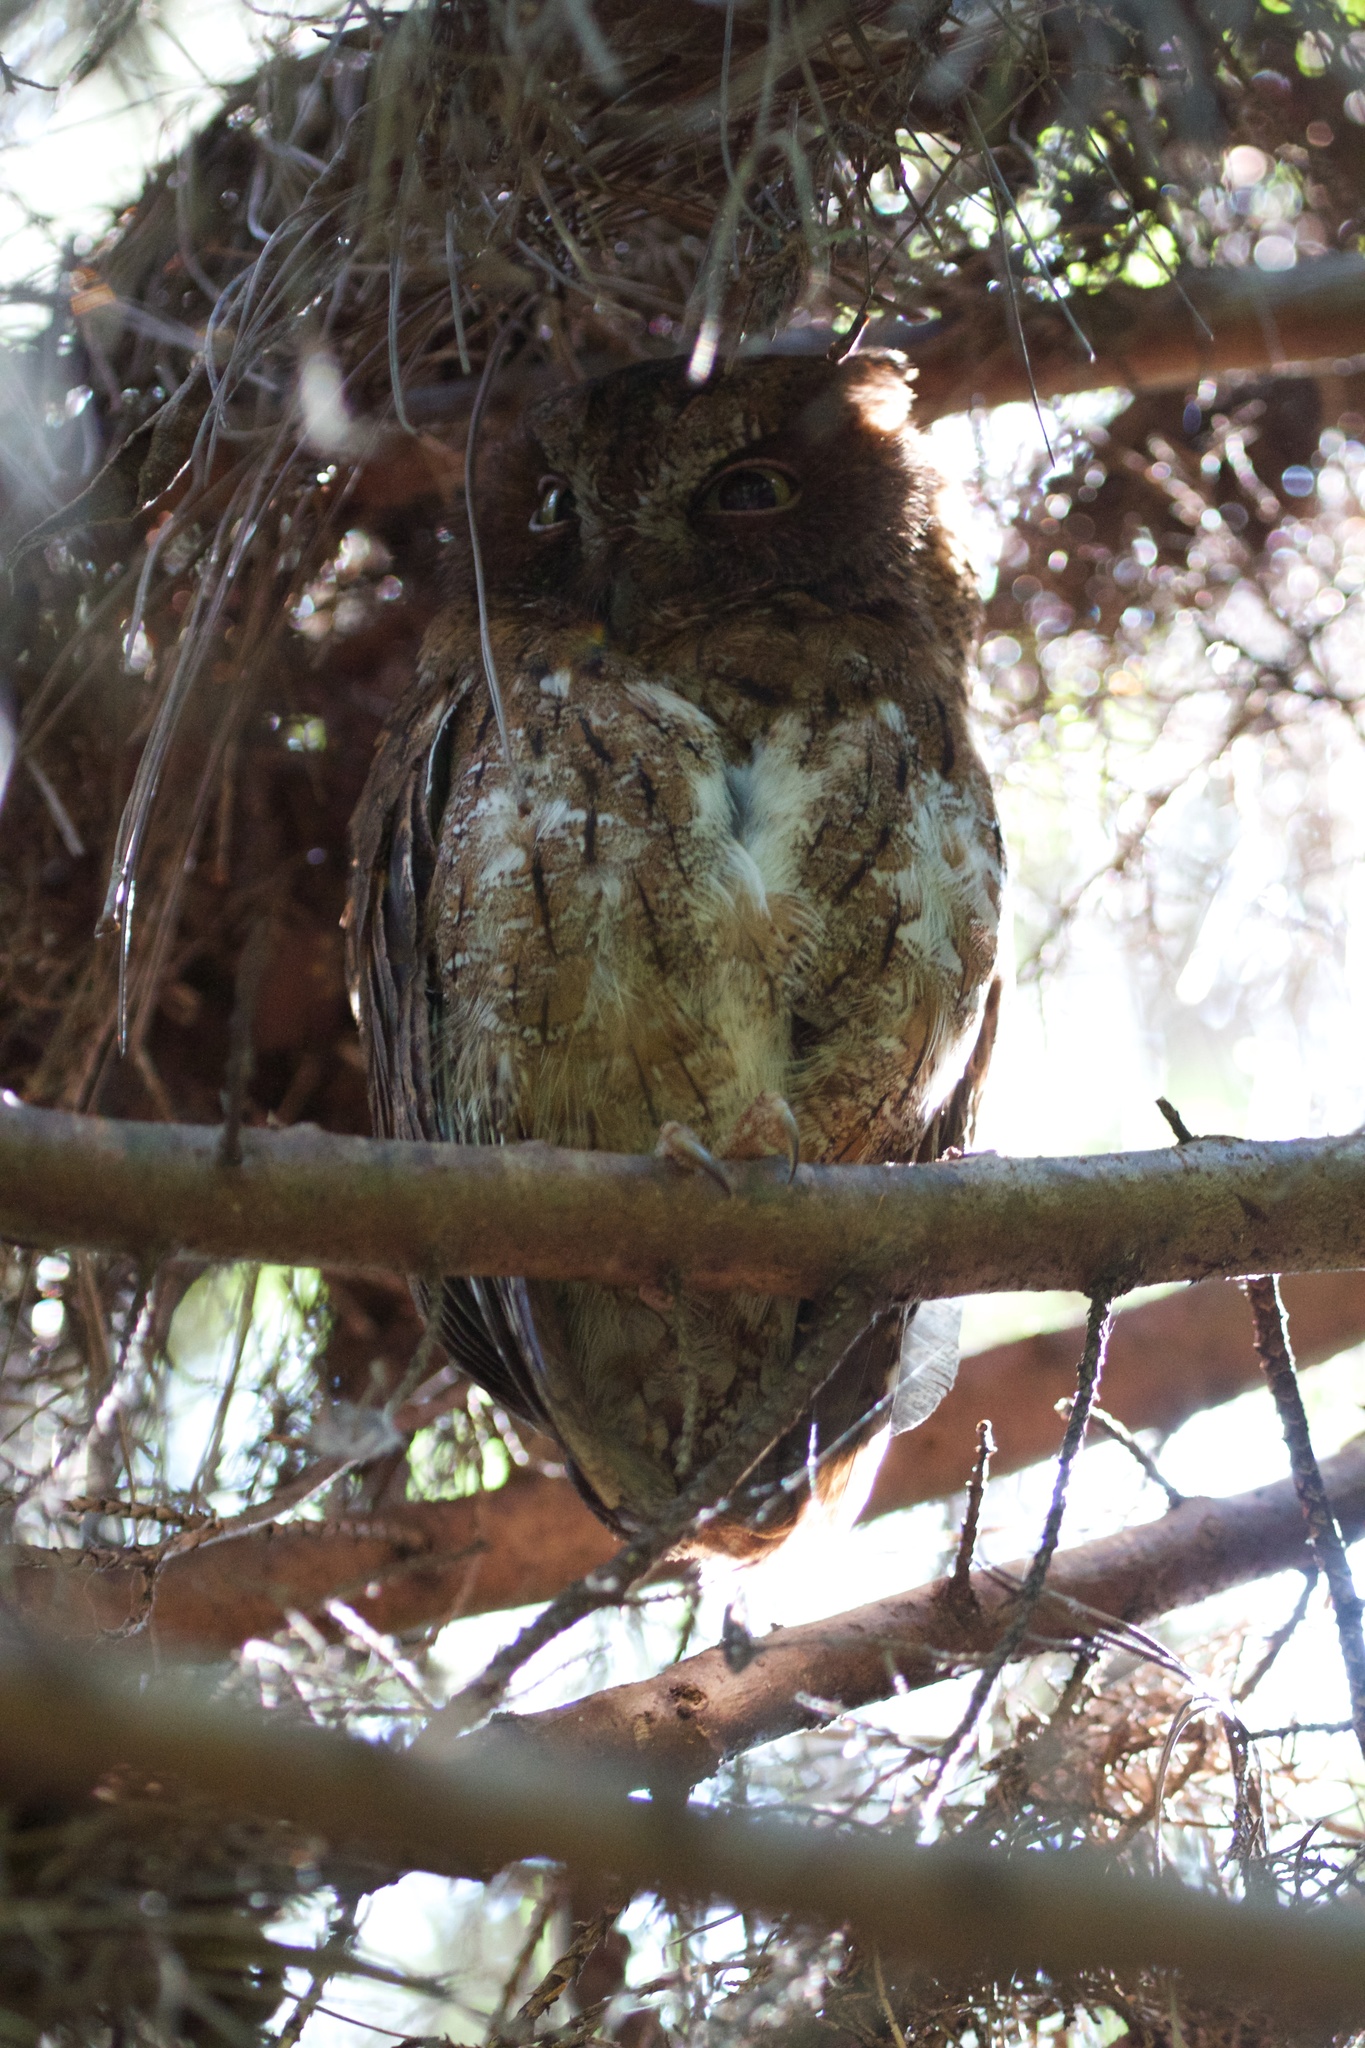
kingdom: Animalia
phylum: Chordata
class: Aves
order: Strigiformes
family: Strigidae
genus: Otus
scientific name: Otus rutilus
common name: Rainforest scops owl
